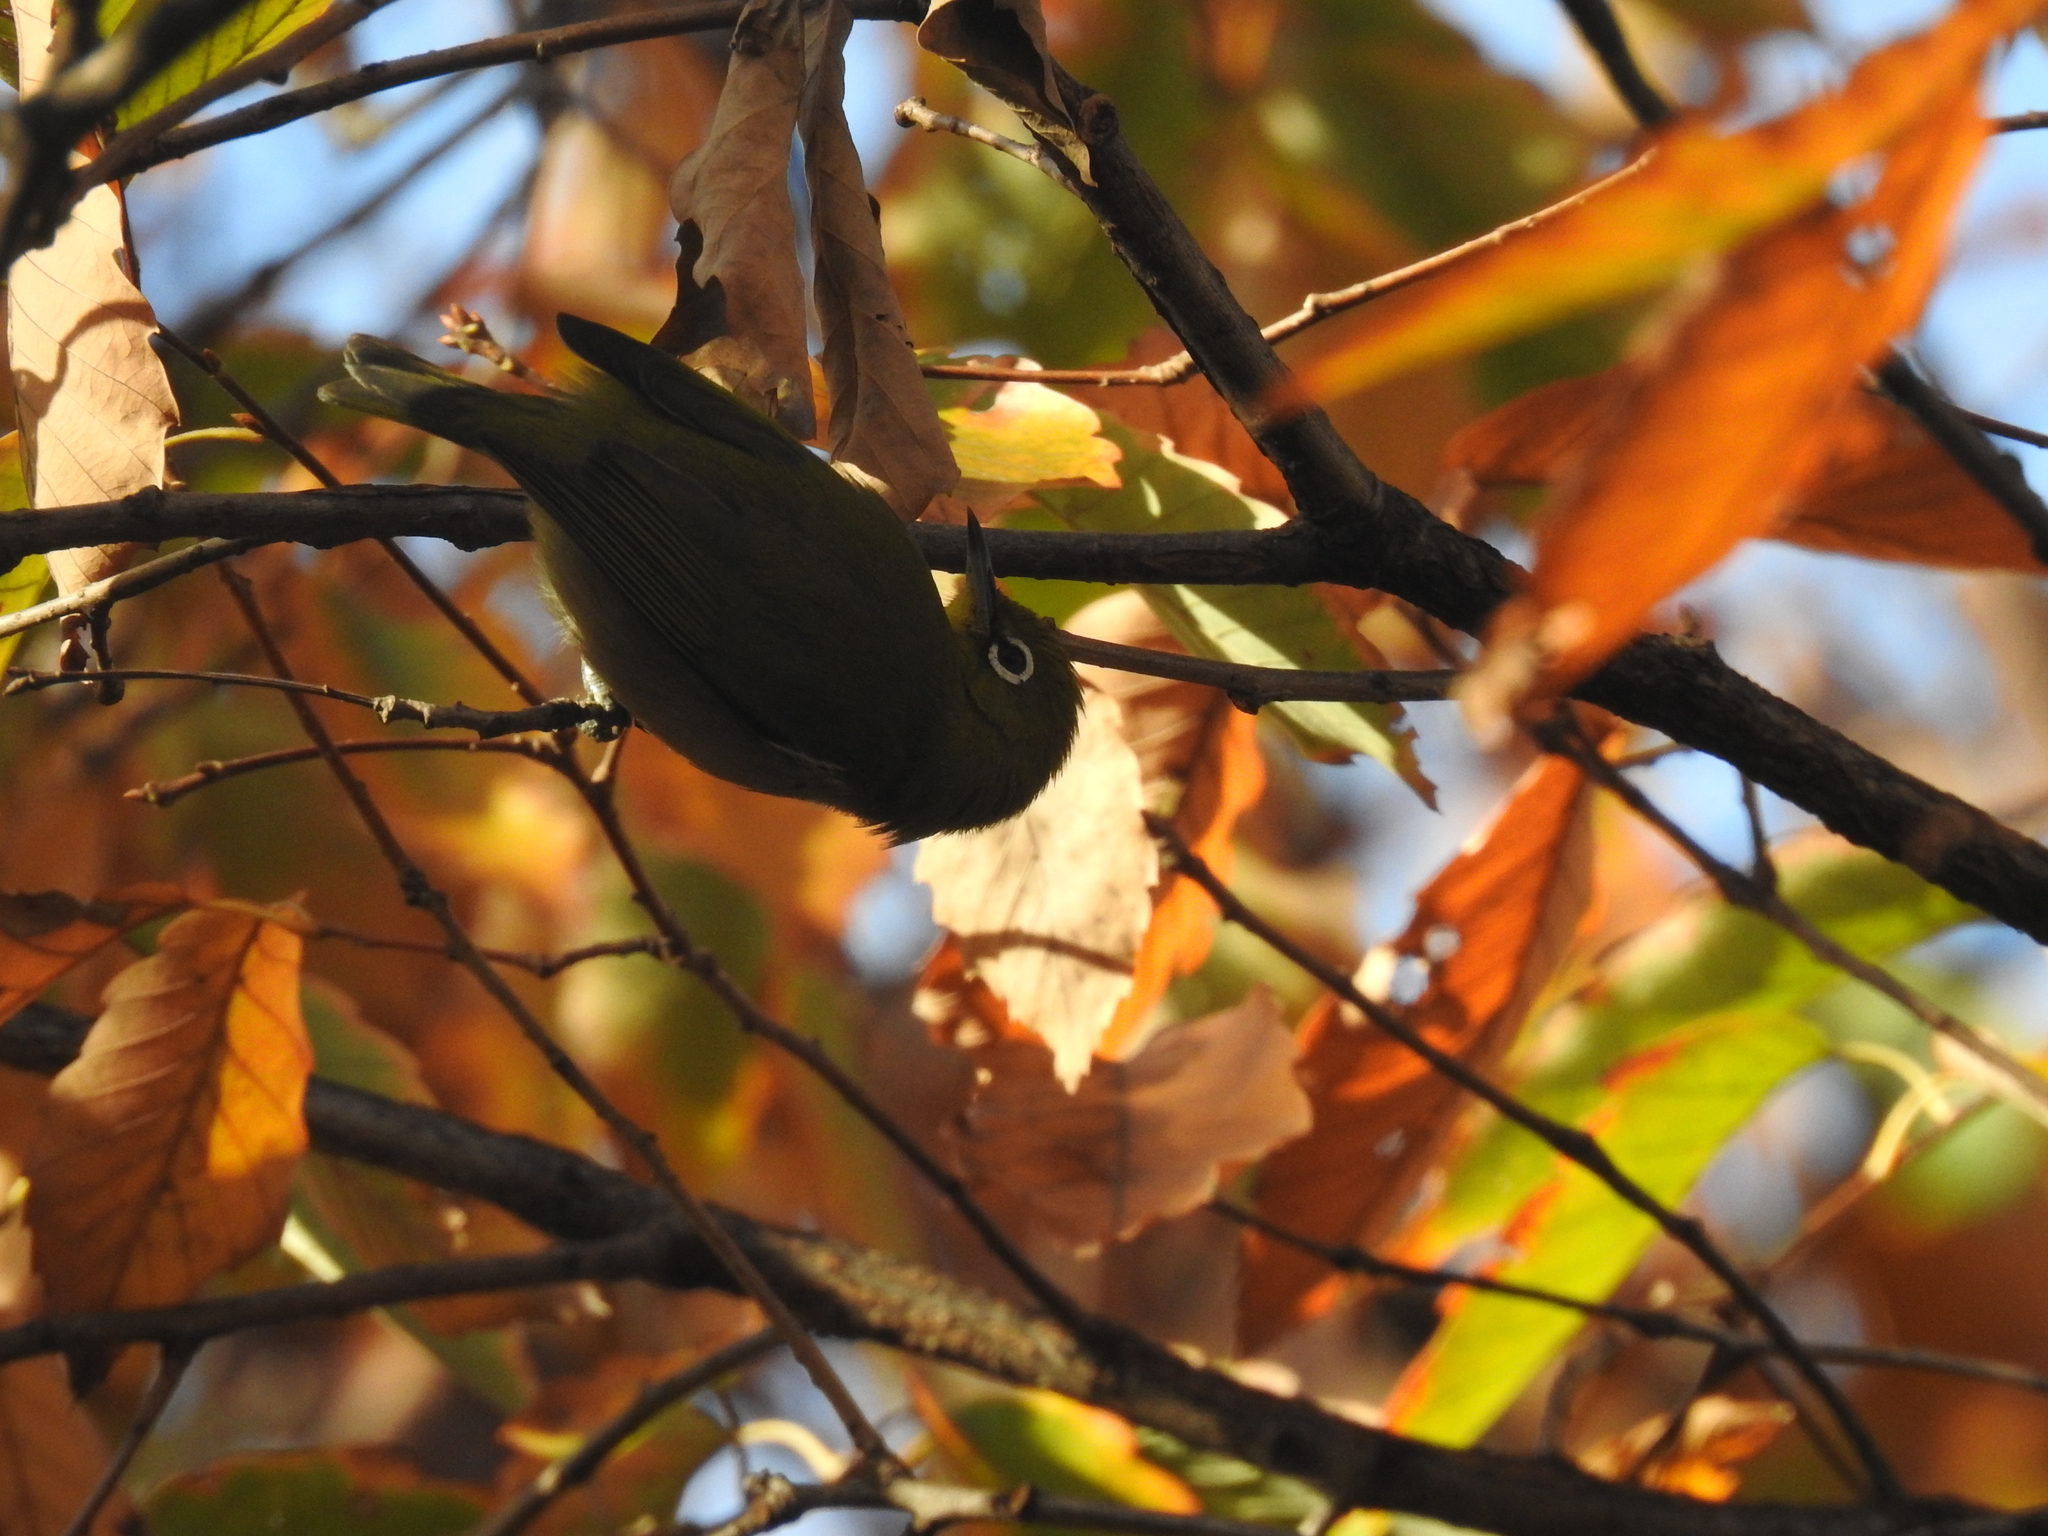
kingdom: Animalia
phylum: Chordata
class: Aves
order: Passeriformes
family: Zosteropidae
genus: Zosterops
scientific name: Zosterops japonicus
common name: Japanese white-eye
